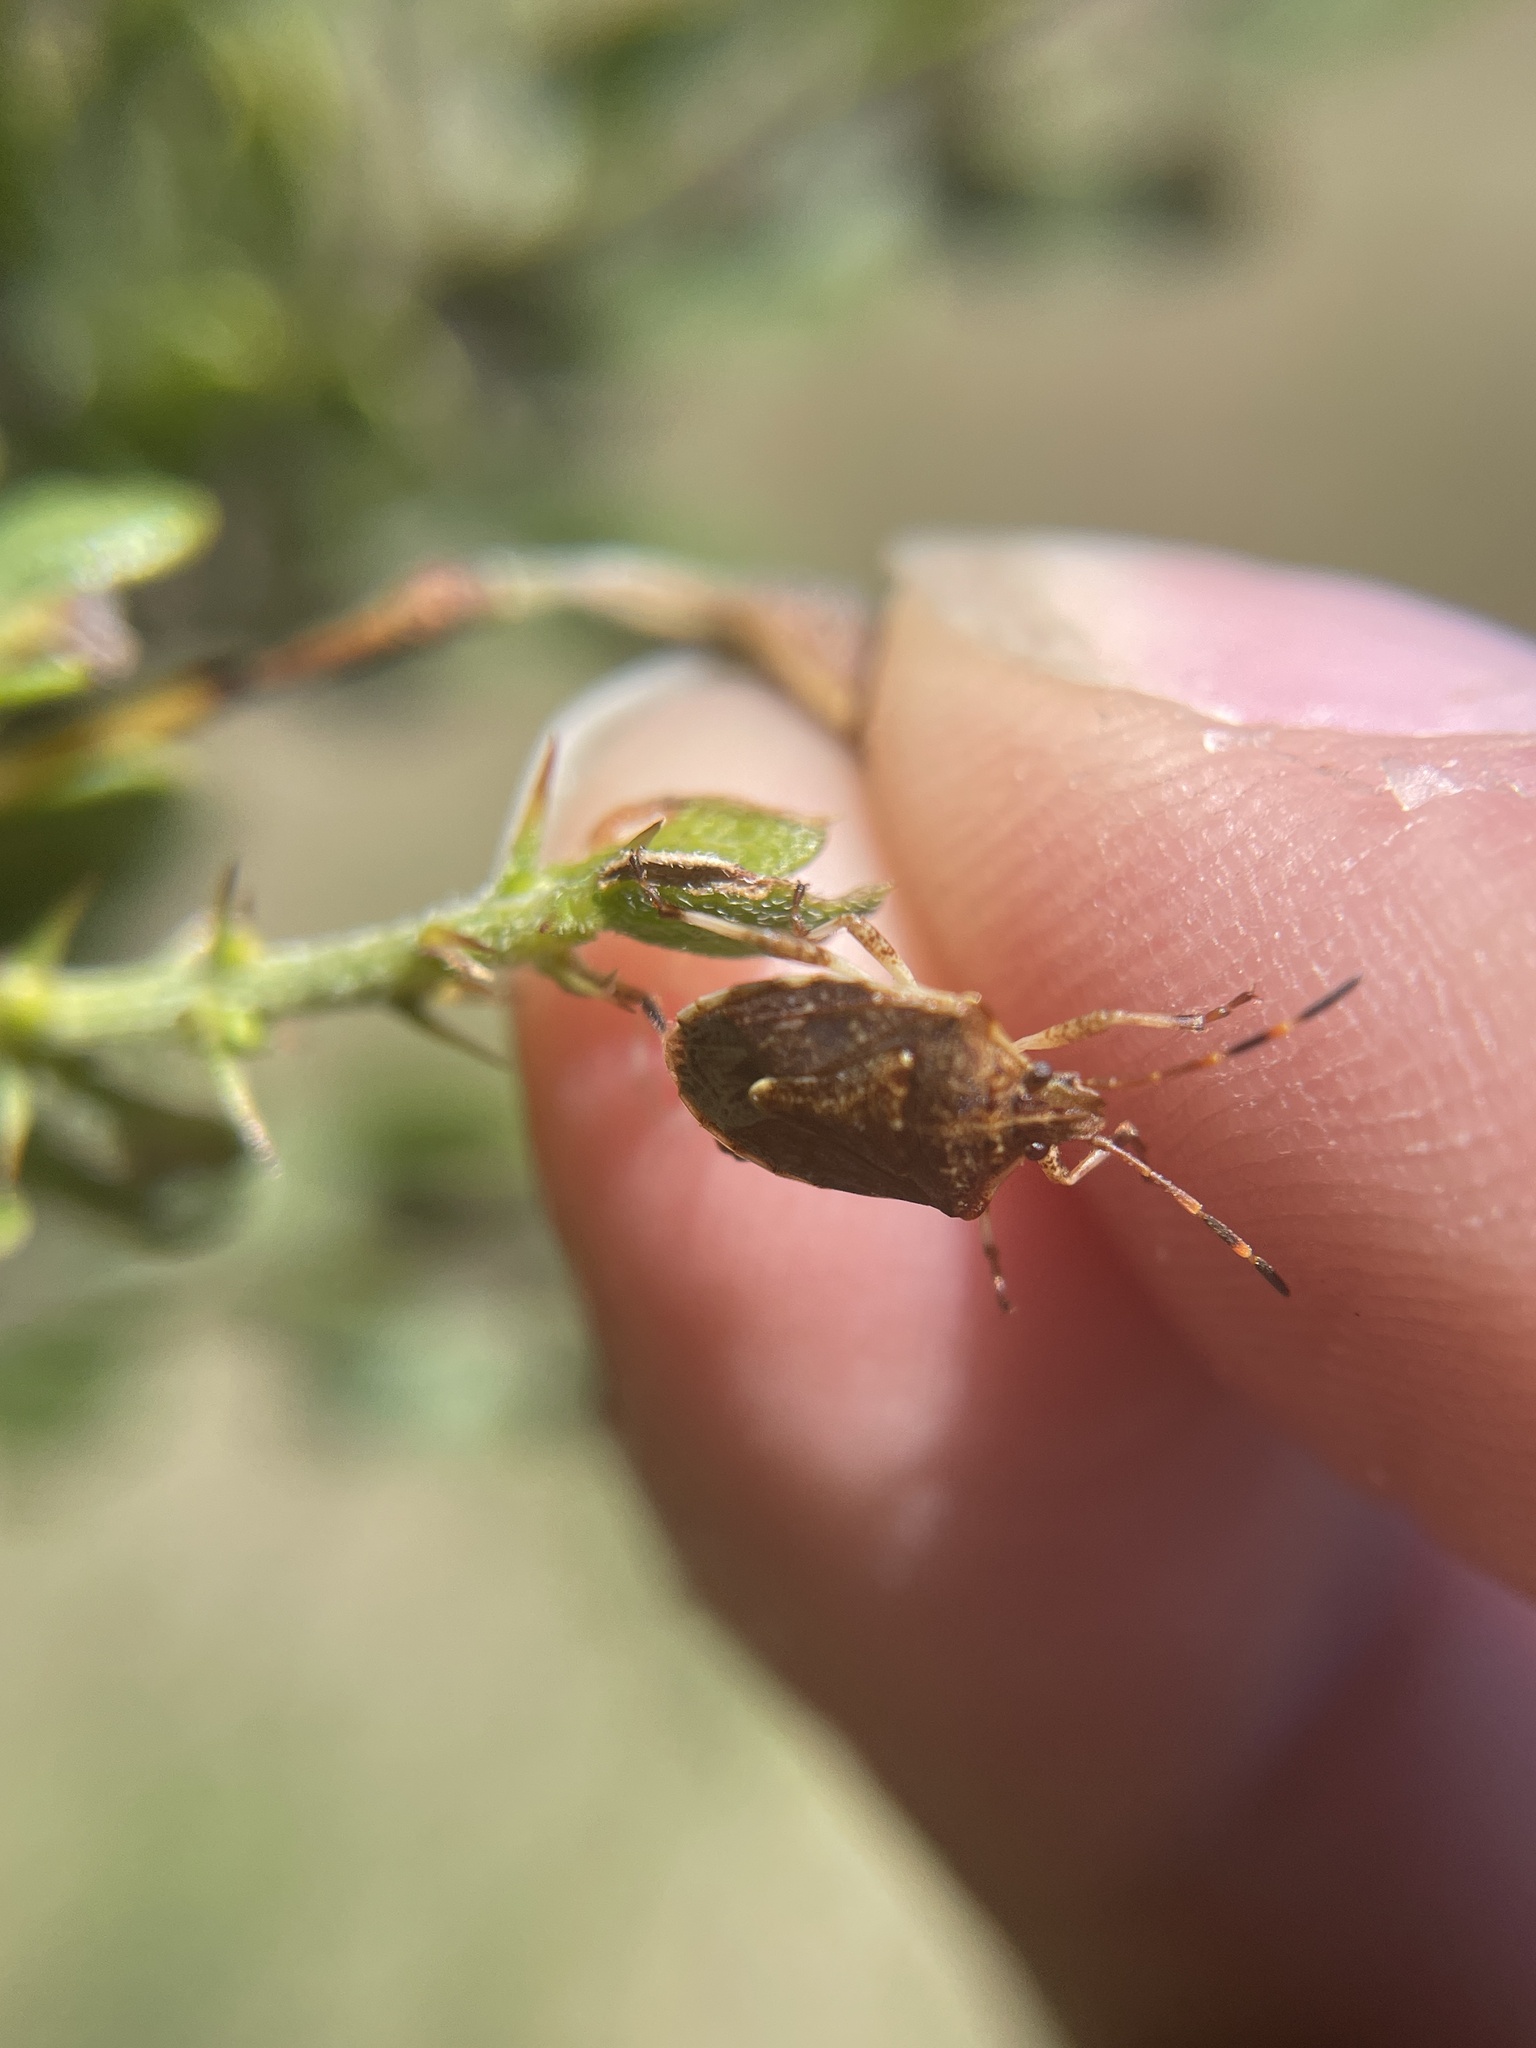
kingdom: Animalia
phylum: Arthropoda
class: Insecta
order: Hemiptera
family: Pentatomidae
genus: Oncocoris
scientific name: Oncocoris
